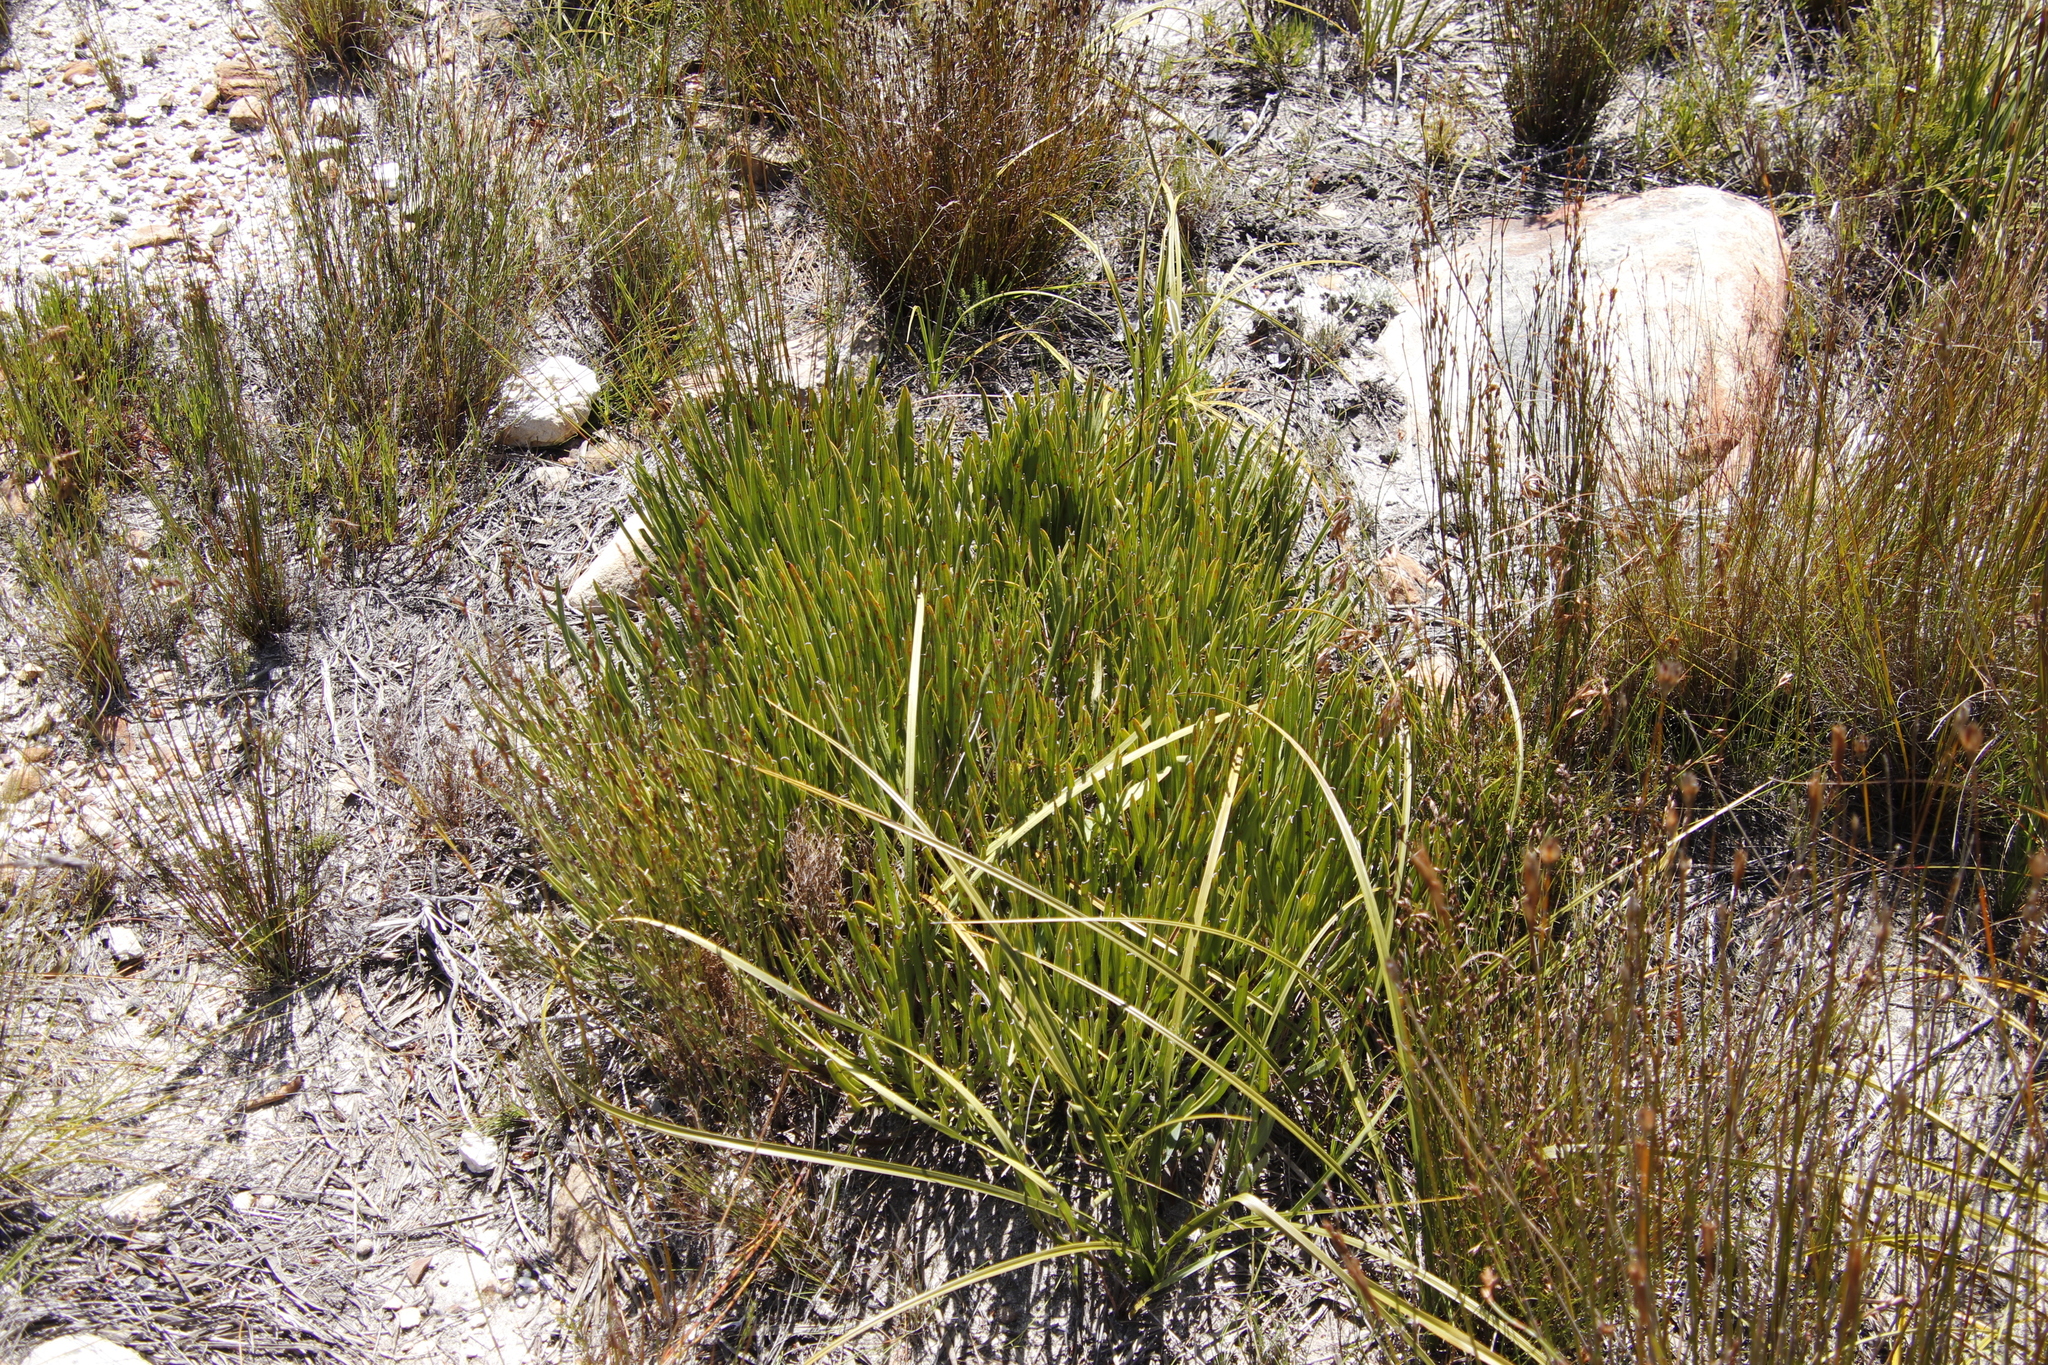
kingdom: Plantae
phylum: Tracheophyta
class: Magnoliopsida
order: Proteales
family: Proteaceae
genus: Protea
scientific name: Protea scabra
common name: Sandpaper-leaf sugarbush
